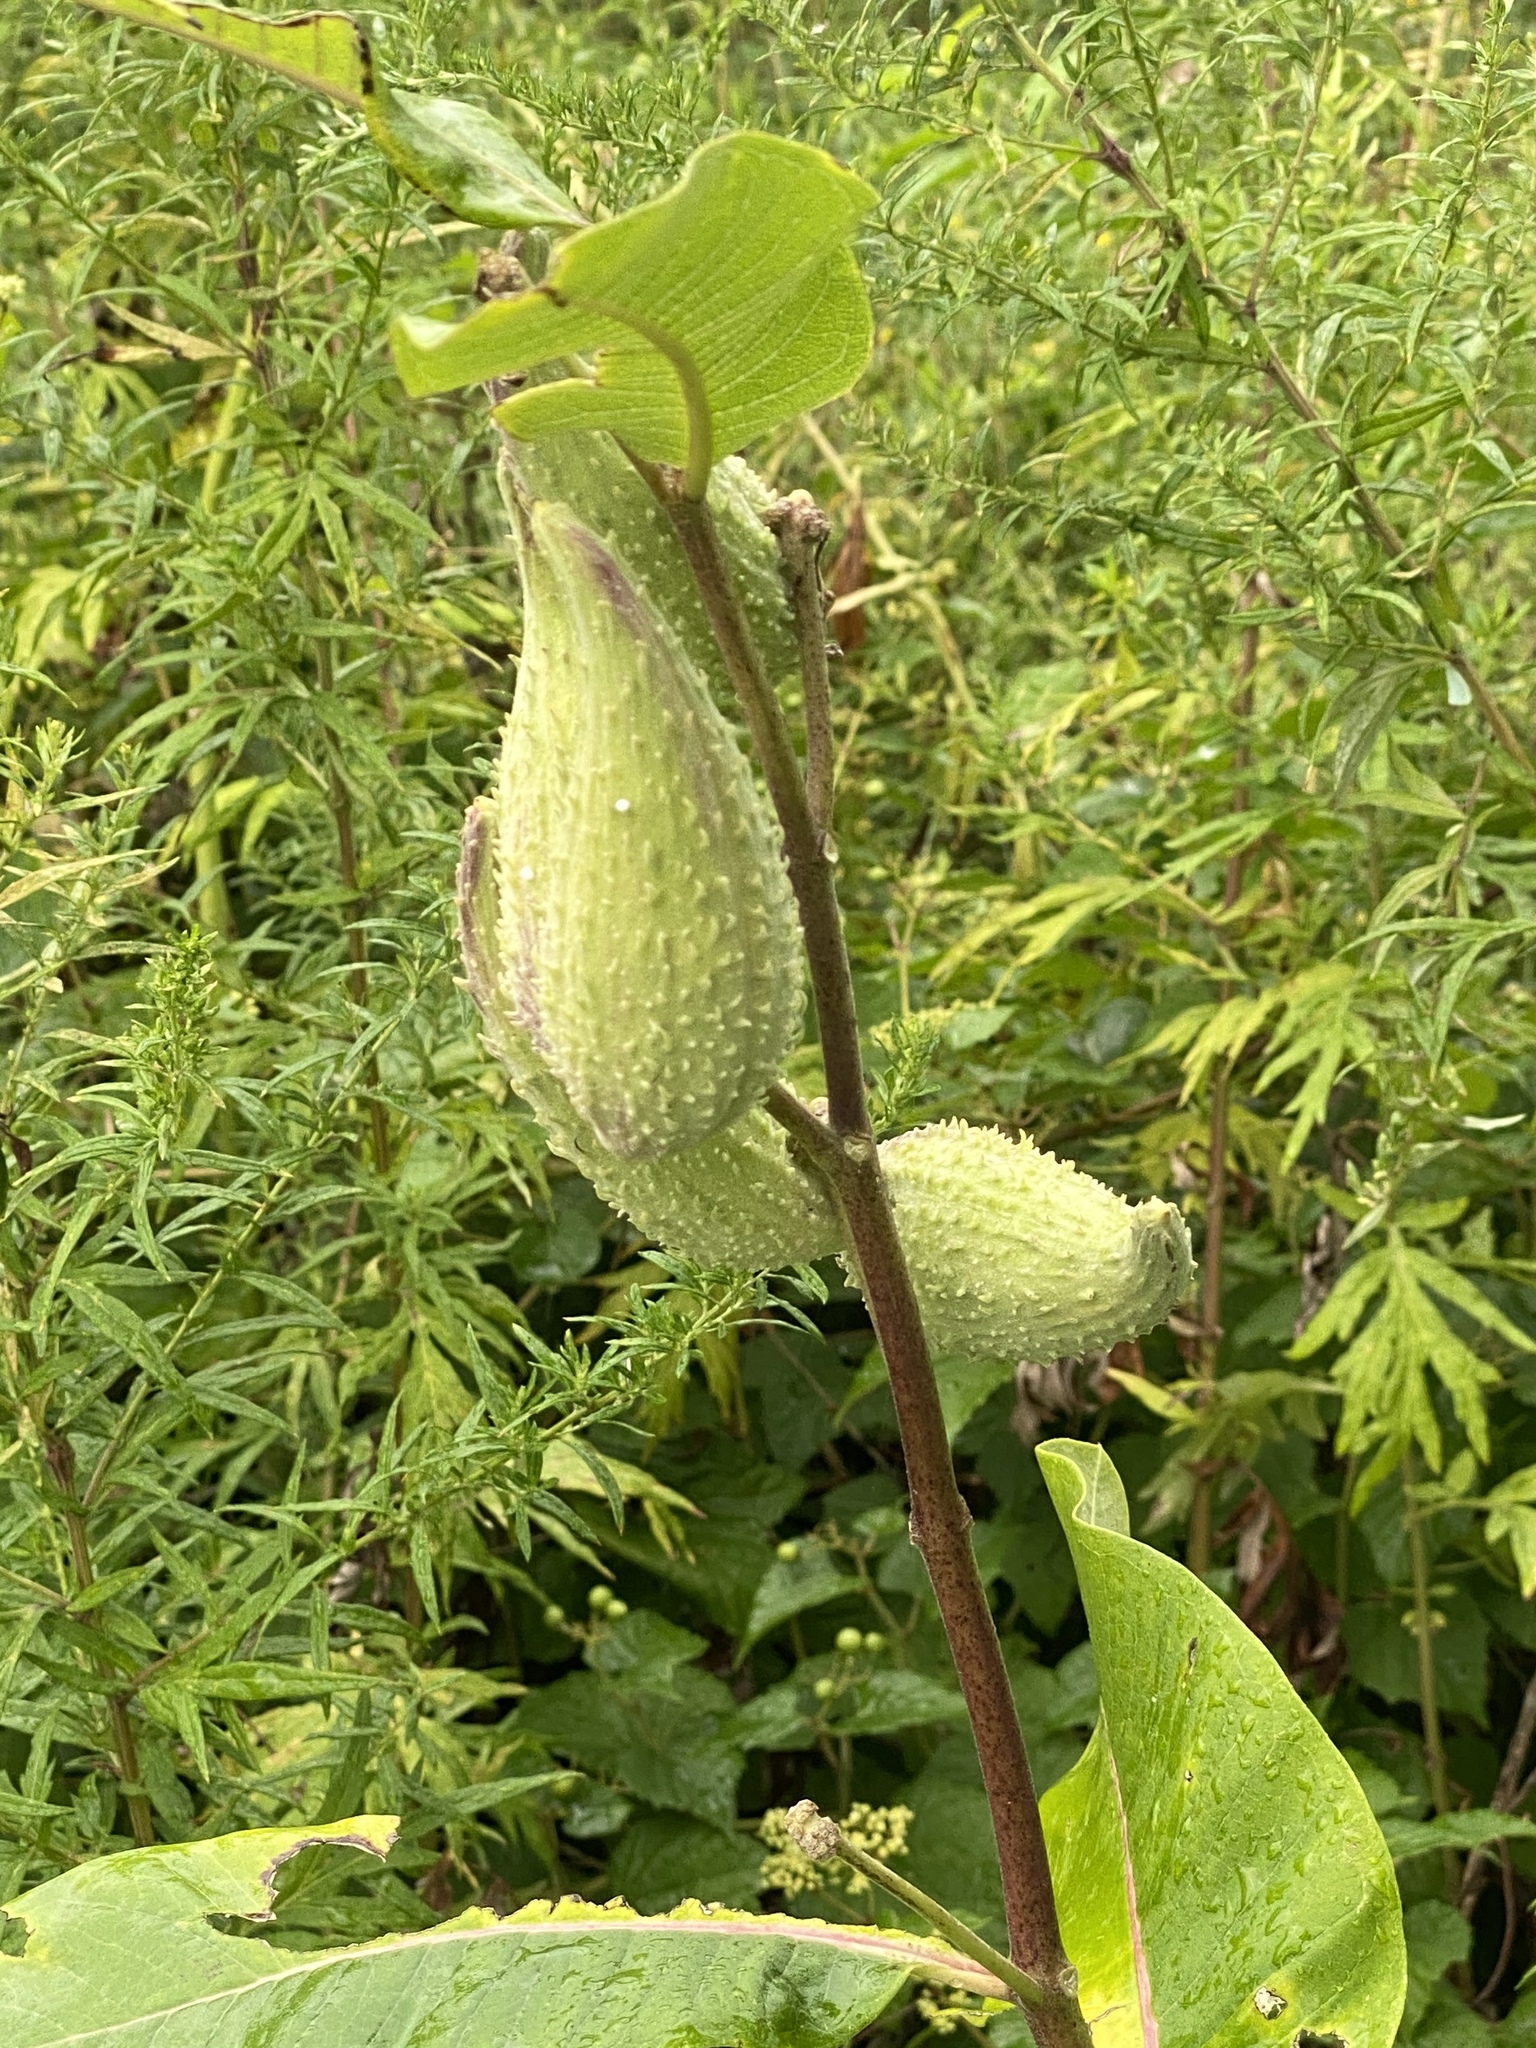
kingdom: Plantae
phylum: Tracheophyta
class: Magnoliopsida
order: Gentianales
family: Apocynaceae
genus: Asclepias
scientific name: Asclepias syriaca
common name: Common milkweed
